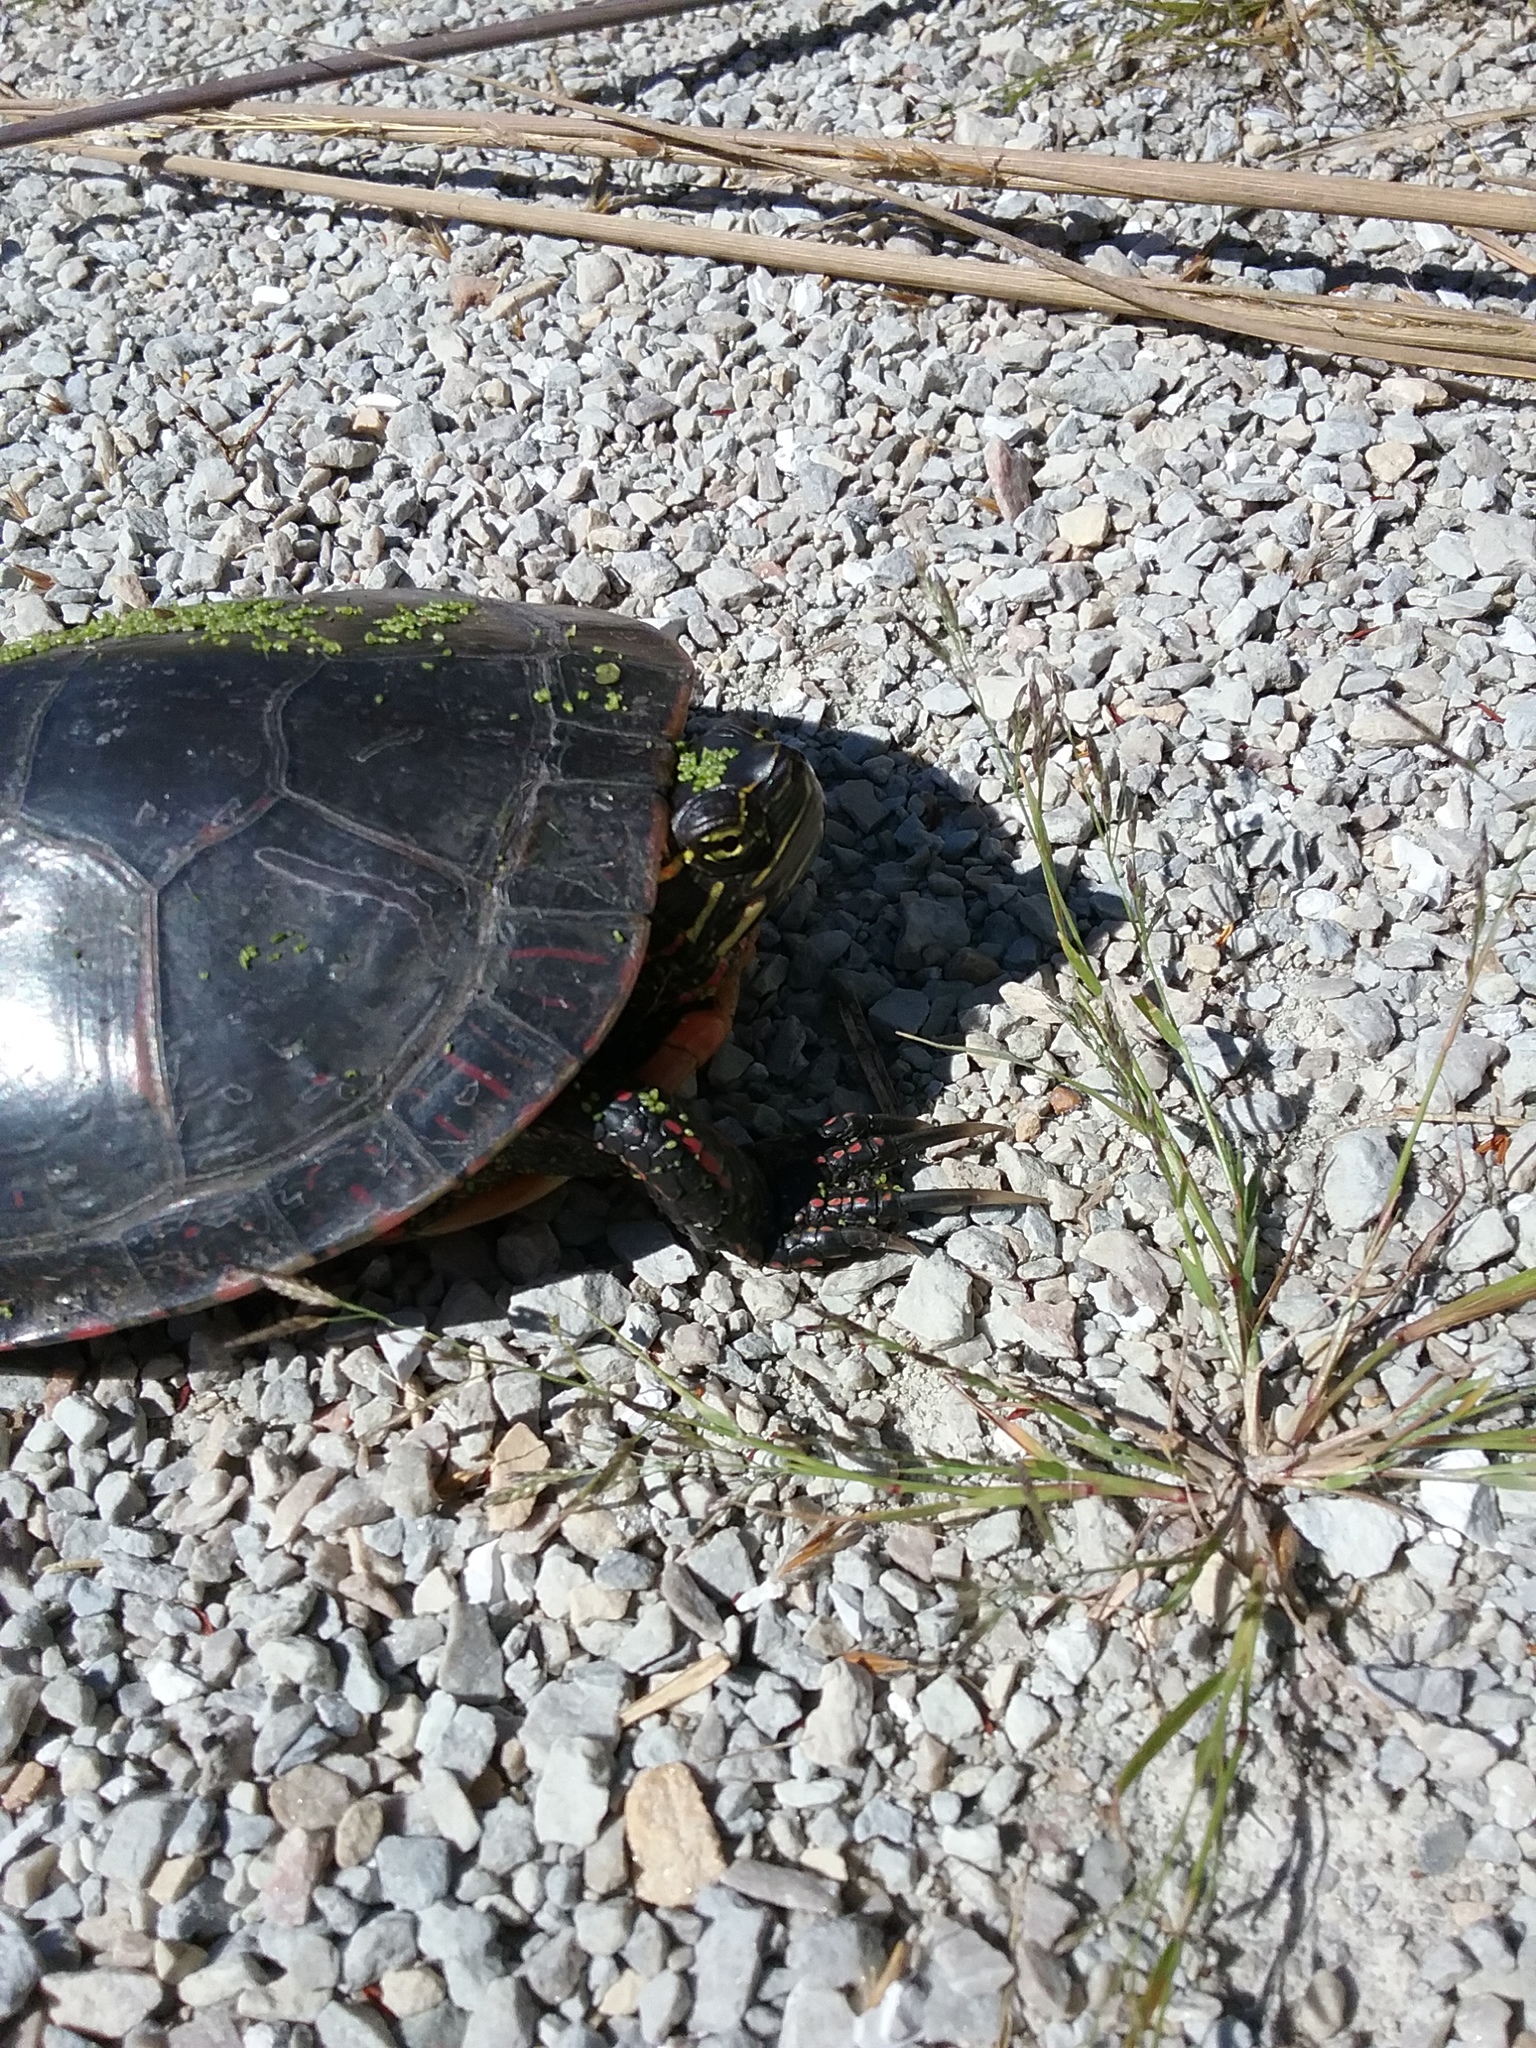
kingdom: Animalia
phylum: Chordata
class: Testudines
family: Emydidae
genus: Chrysemys
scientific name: Chrysemys picta
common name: Painted turtle
